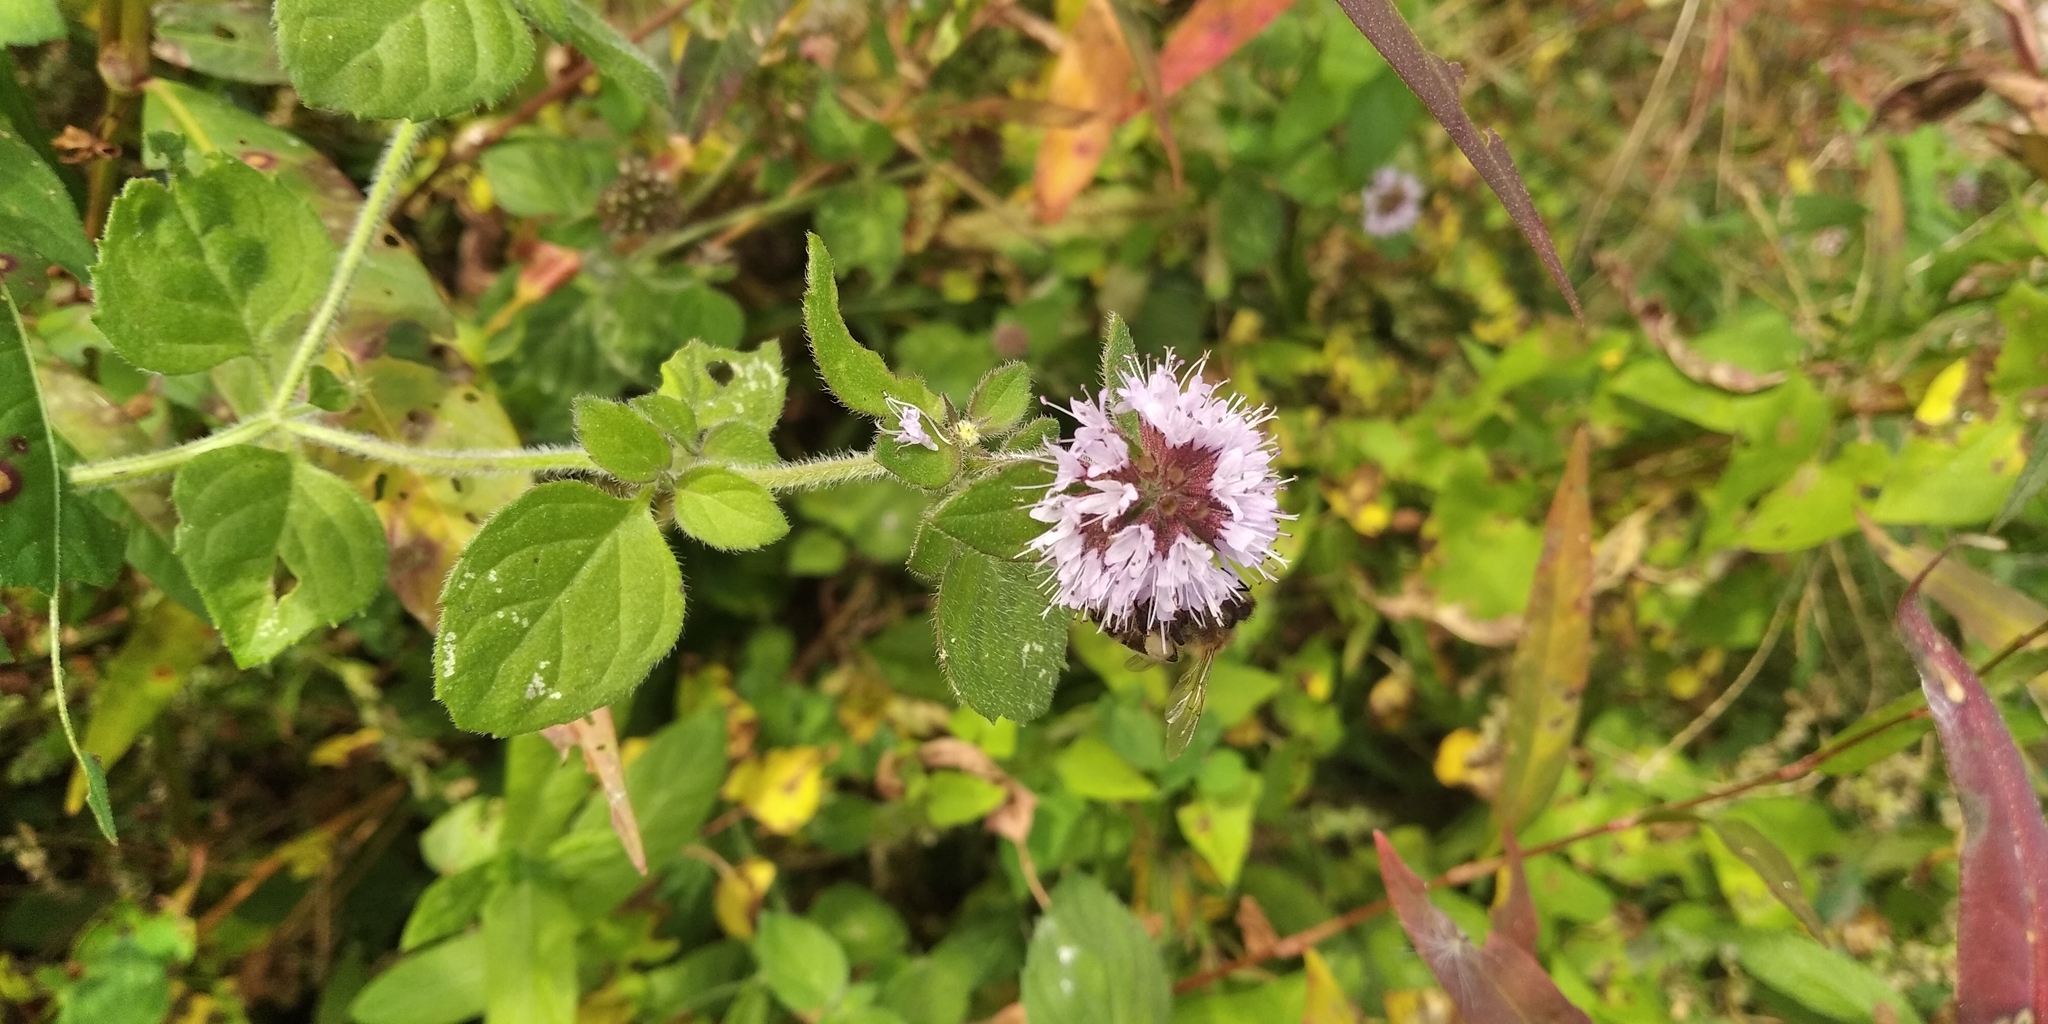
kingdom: Plantae
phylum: Tracheophyta
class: Magnoliopsida
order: Lamiales
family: Lamiaceae
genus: Mentha
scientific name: Mentha aquatica
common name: Water mint
